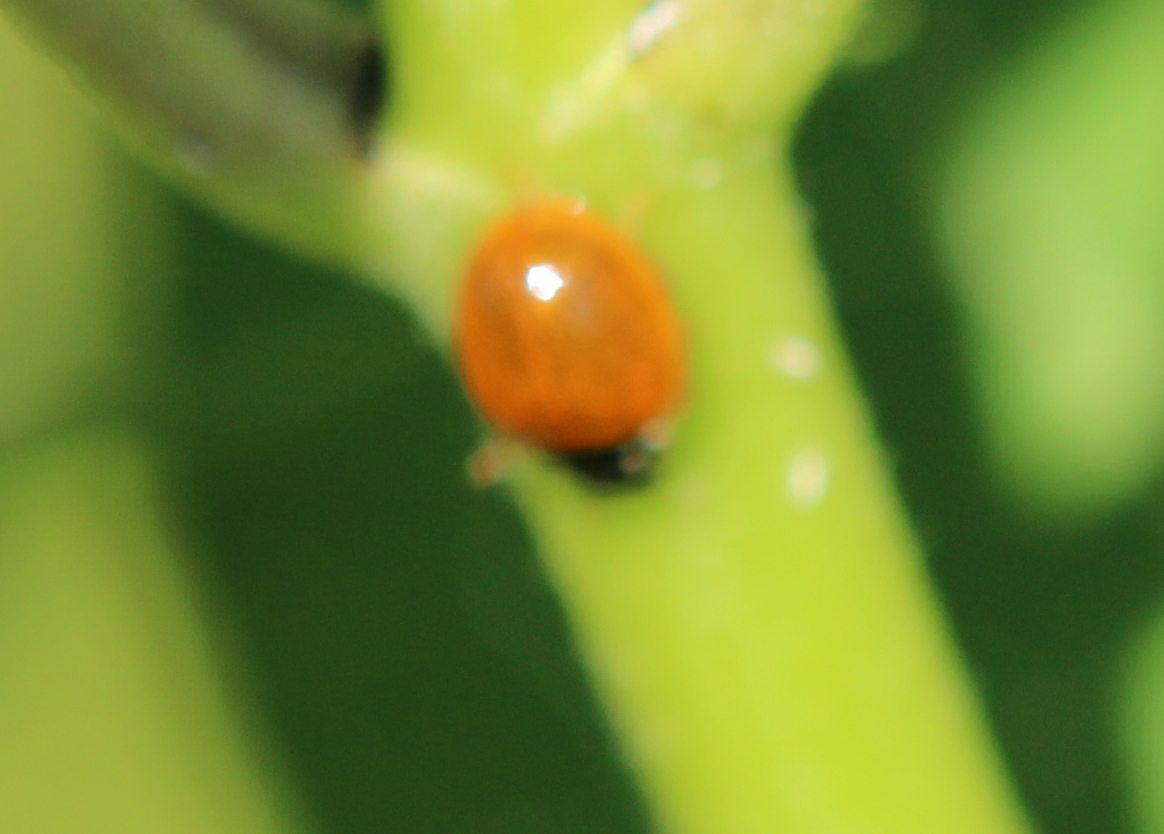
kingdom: Animalia
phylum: Arthropoda
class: Insecta
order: Coleoptera
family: Coccinellidae
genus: Cycloneda
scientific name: Cycloneda munda
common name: Polished lady beetle
